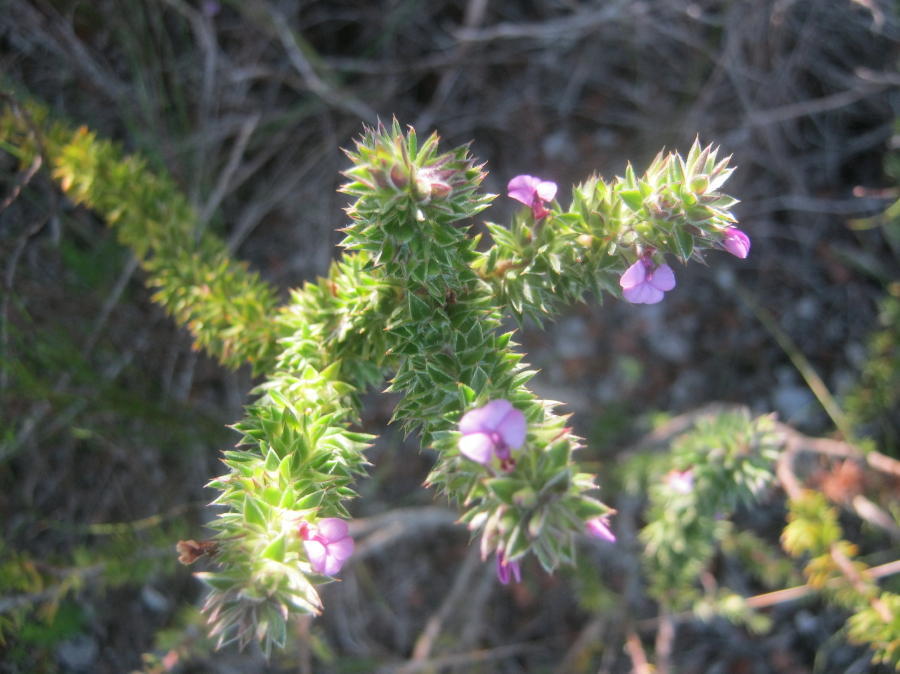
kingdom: Plantae
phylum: Tracheophyta
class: Magnoliopsida
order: Fabales
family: Polygalaceae
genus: Muraltia
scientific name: Muraltia squarrosa
